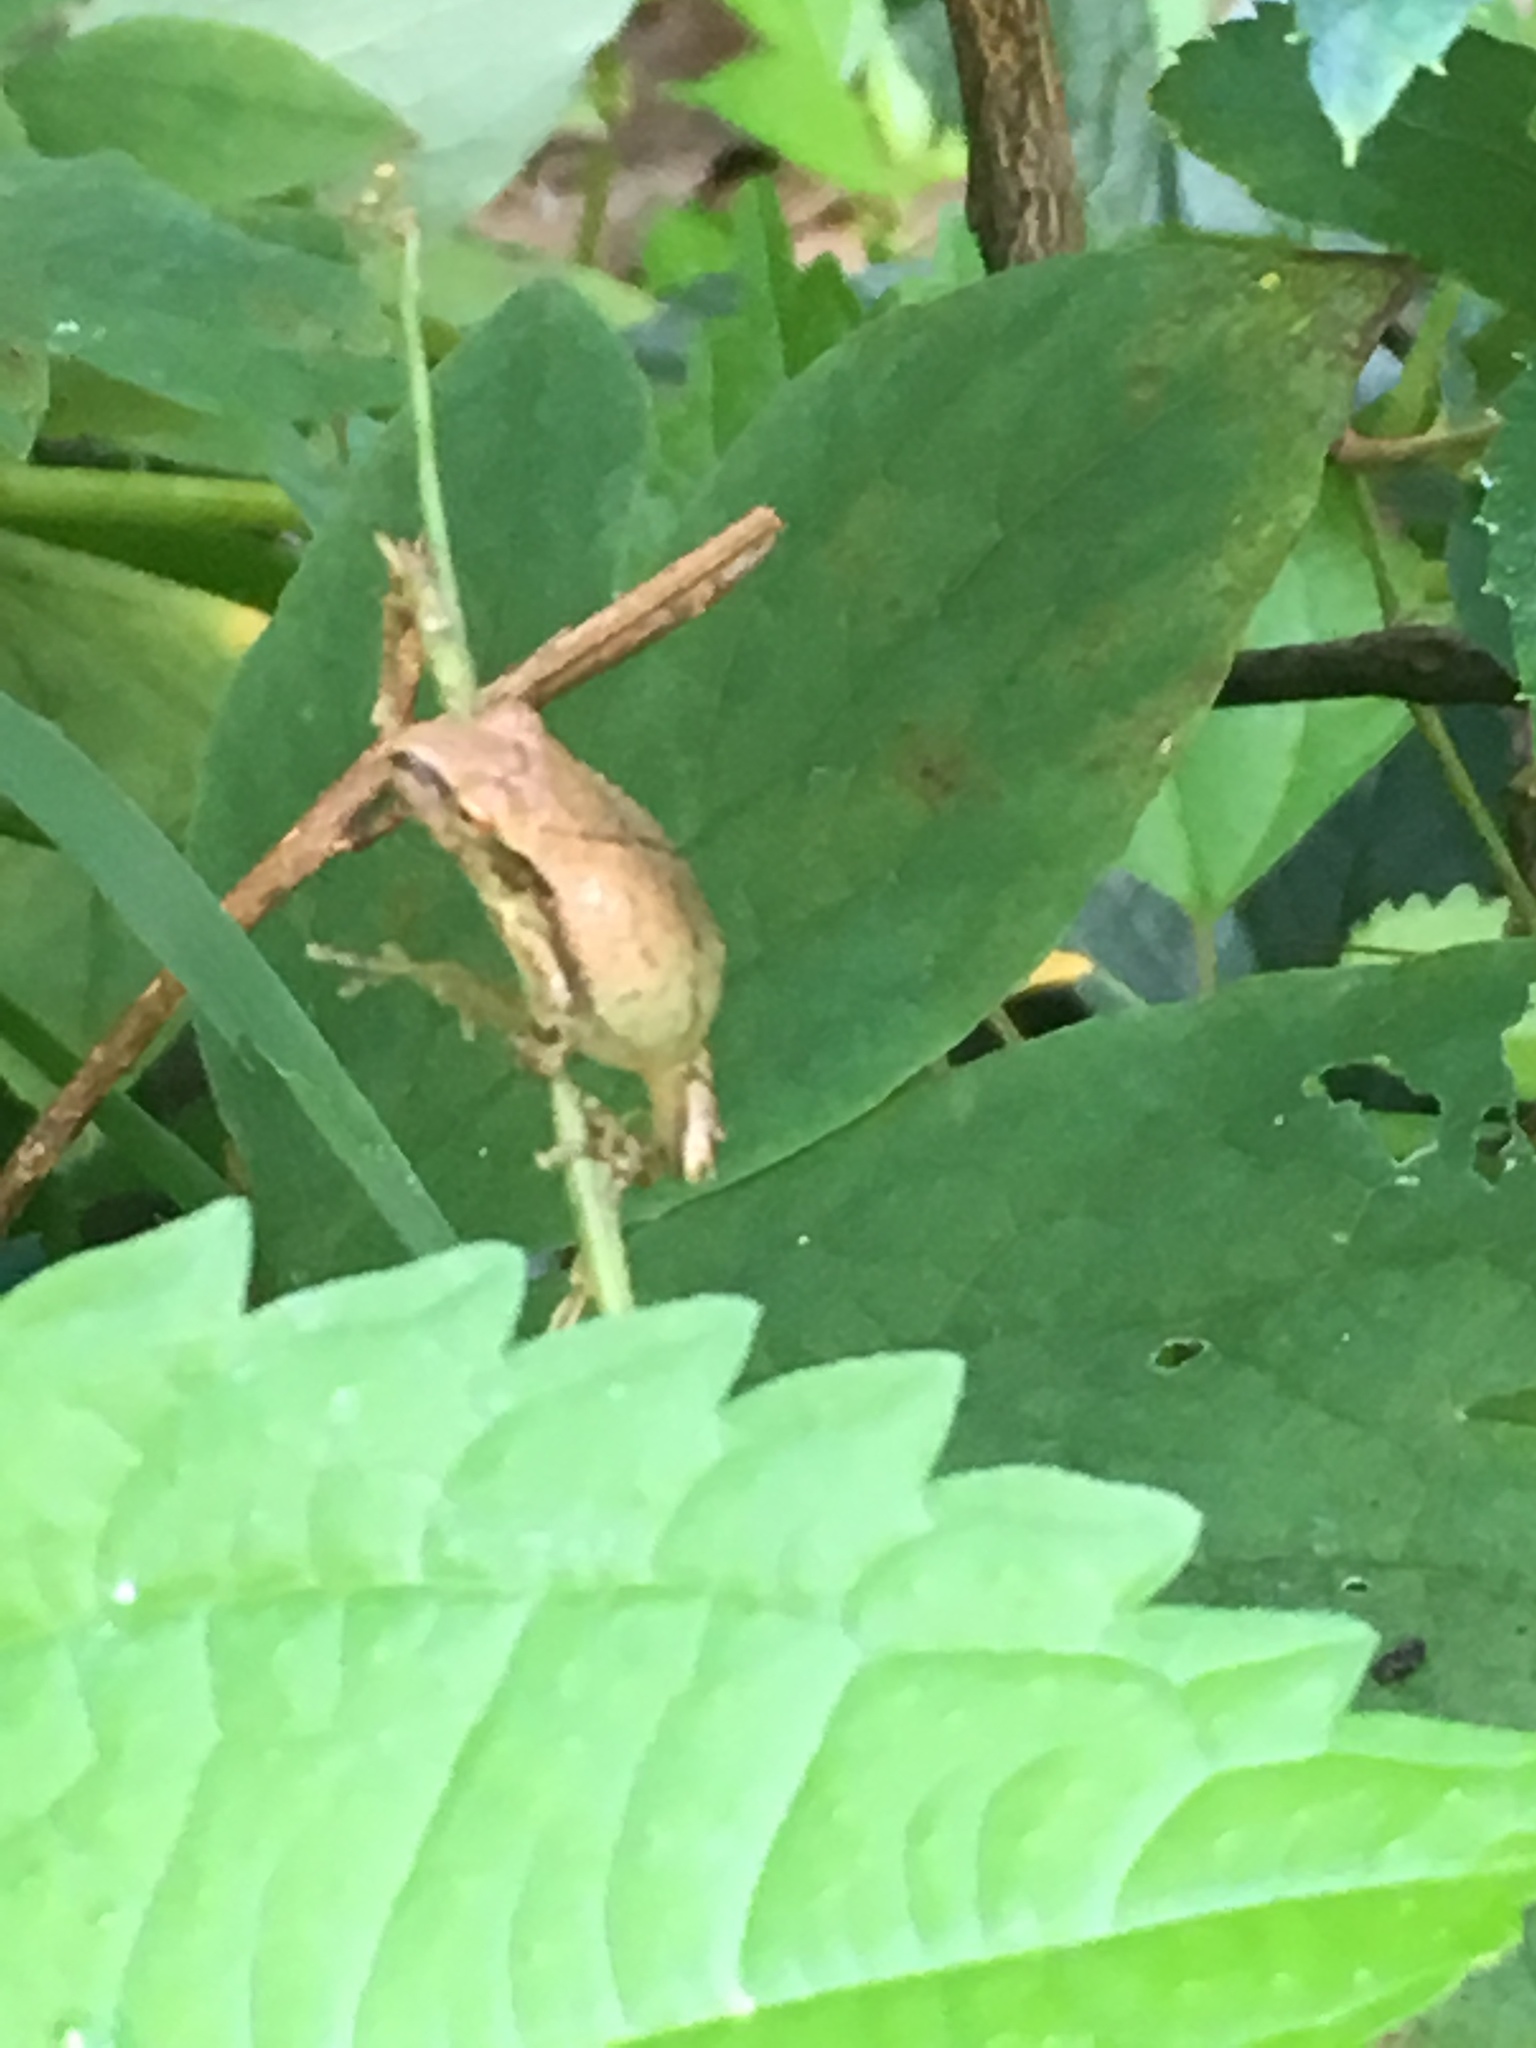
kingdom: Animalia
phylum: Chordata
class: Amphibia
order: Anura
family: Hylidae
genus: Pseudacris
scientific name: Pseudacris crucifer
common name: Spring peeper
